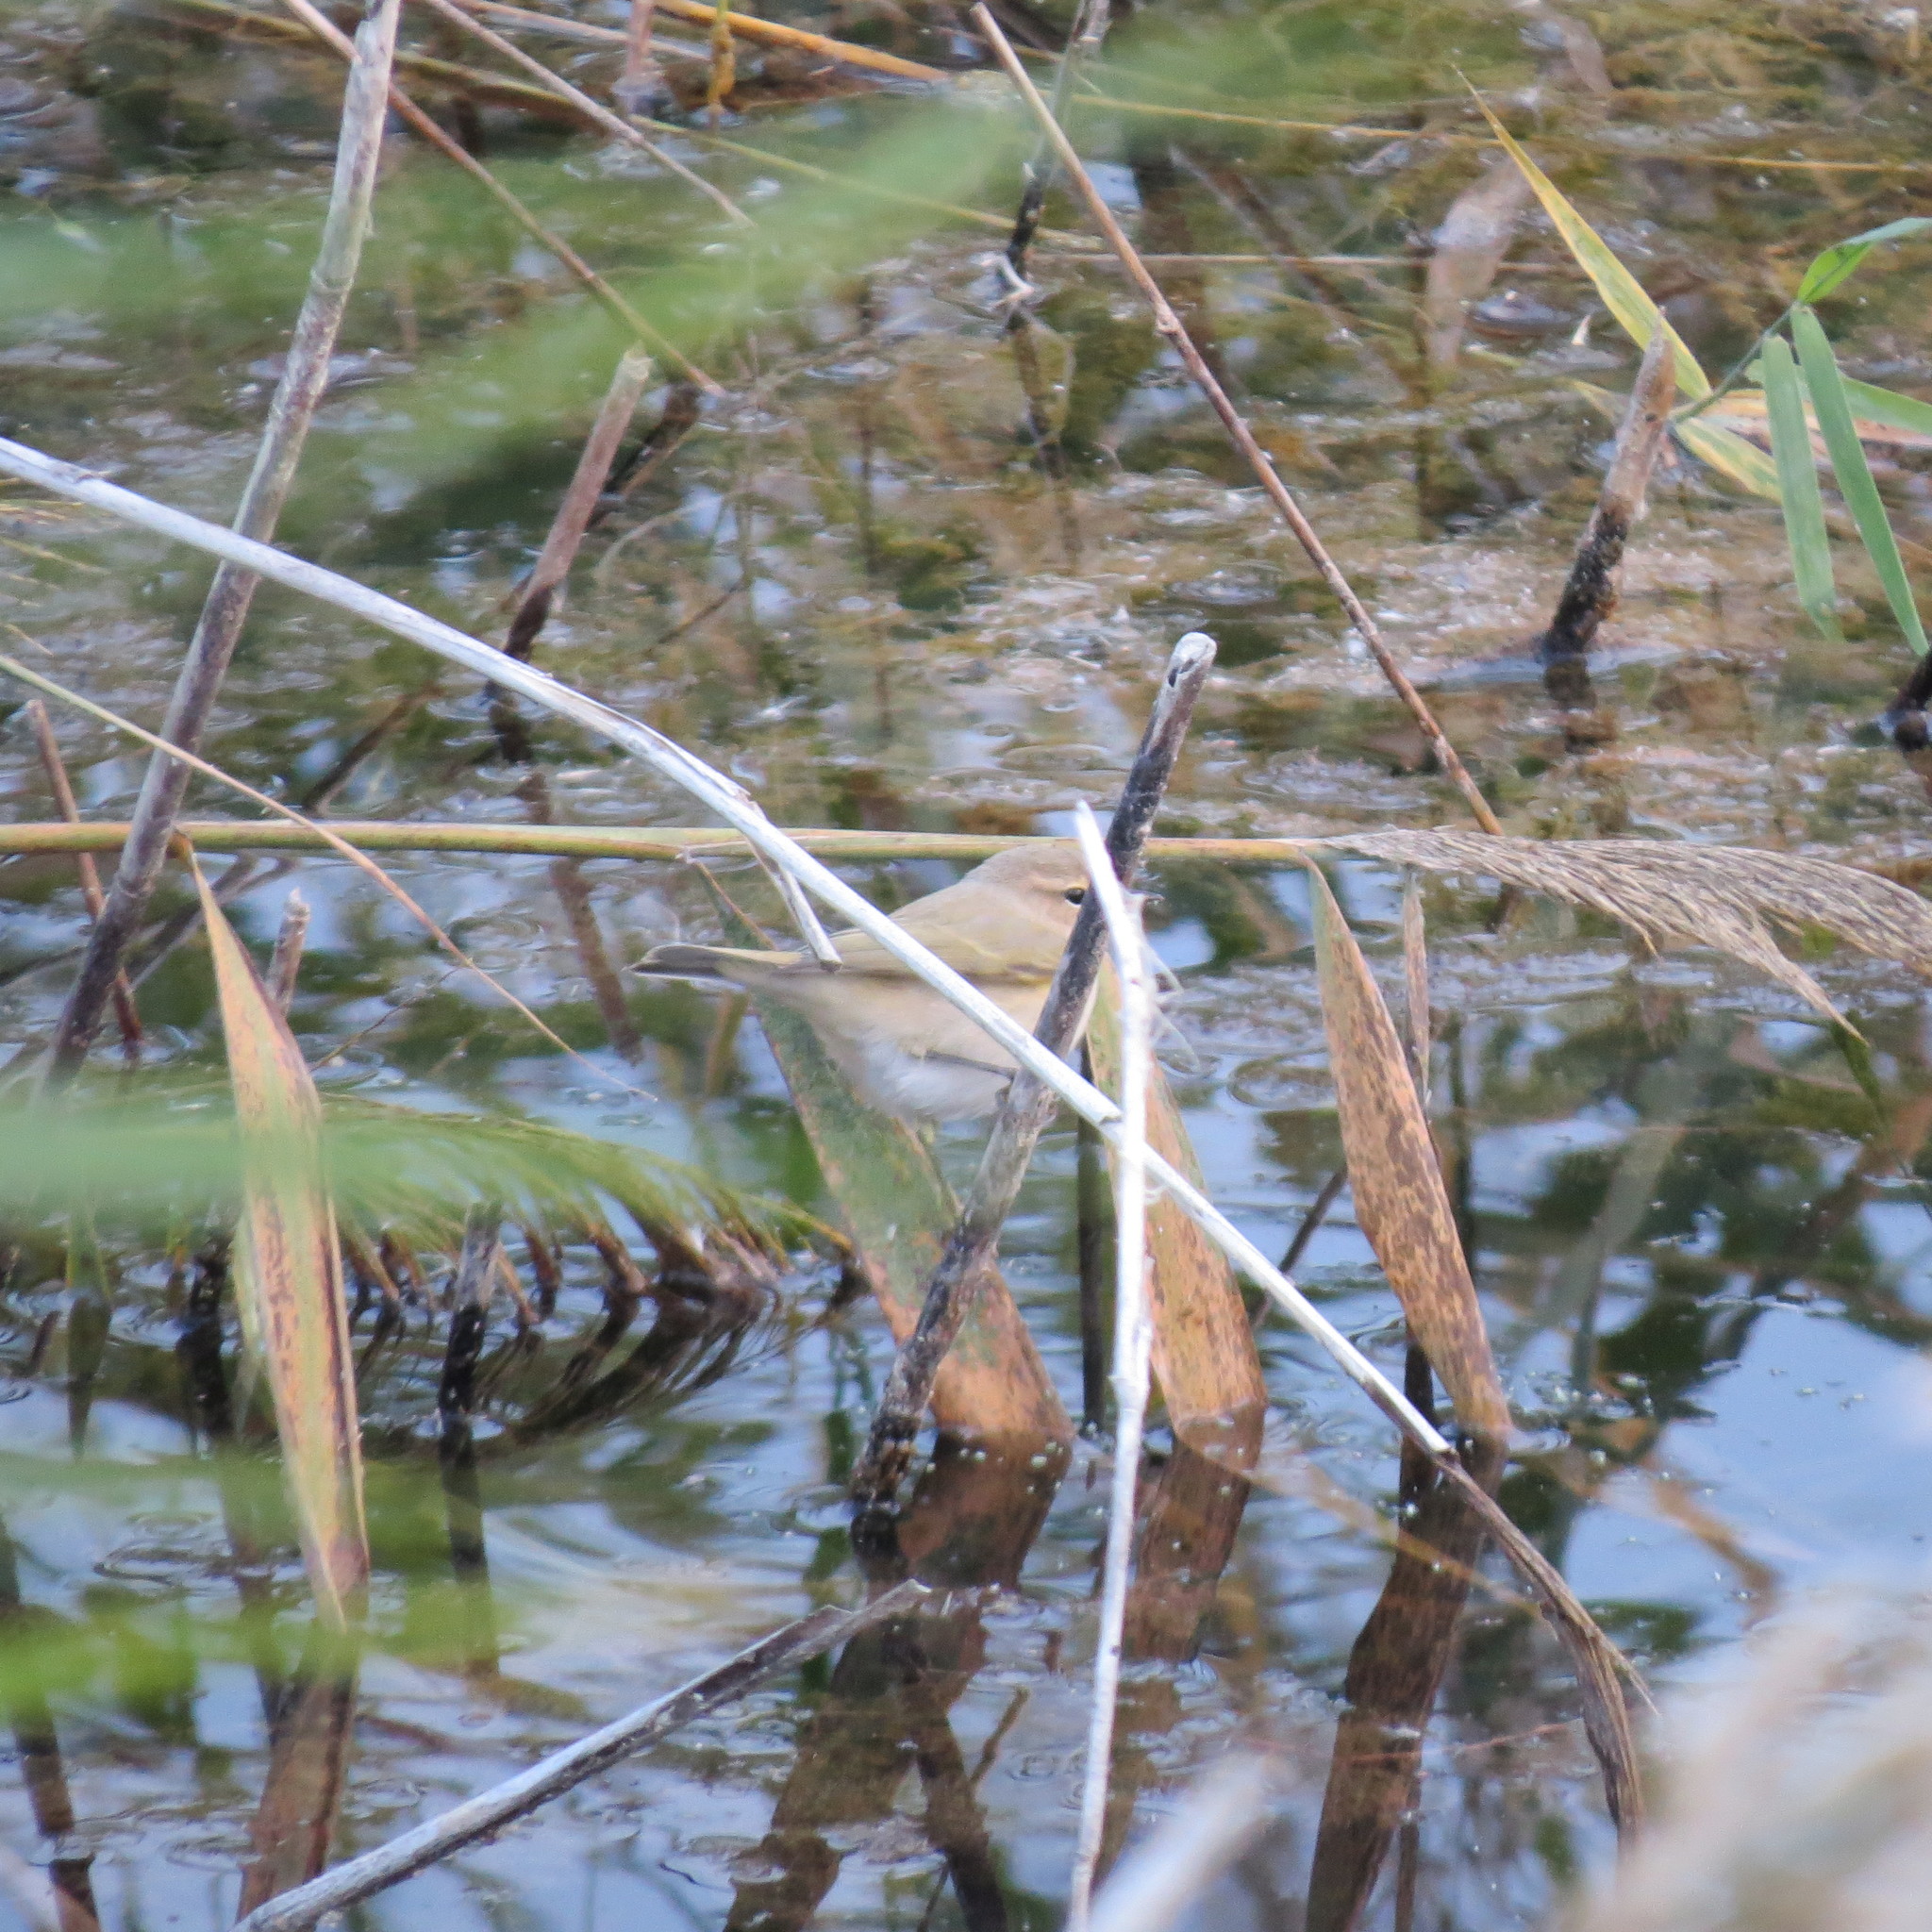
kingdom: Animalia
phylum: Chordata
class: Aves
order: Passeriformes
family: Phylloscopidae
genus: Phylloscopus
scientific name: Phylloscopus collybita
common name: Common chiffchaff
